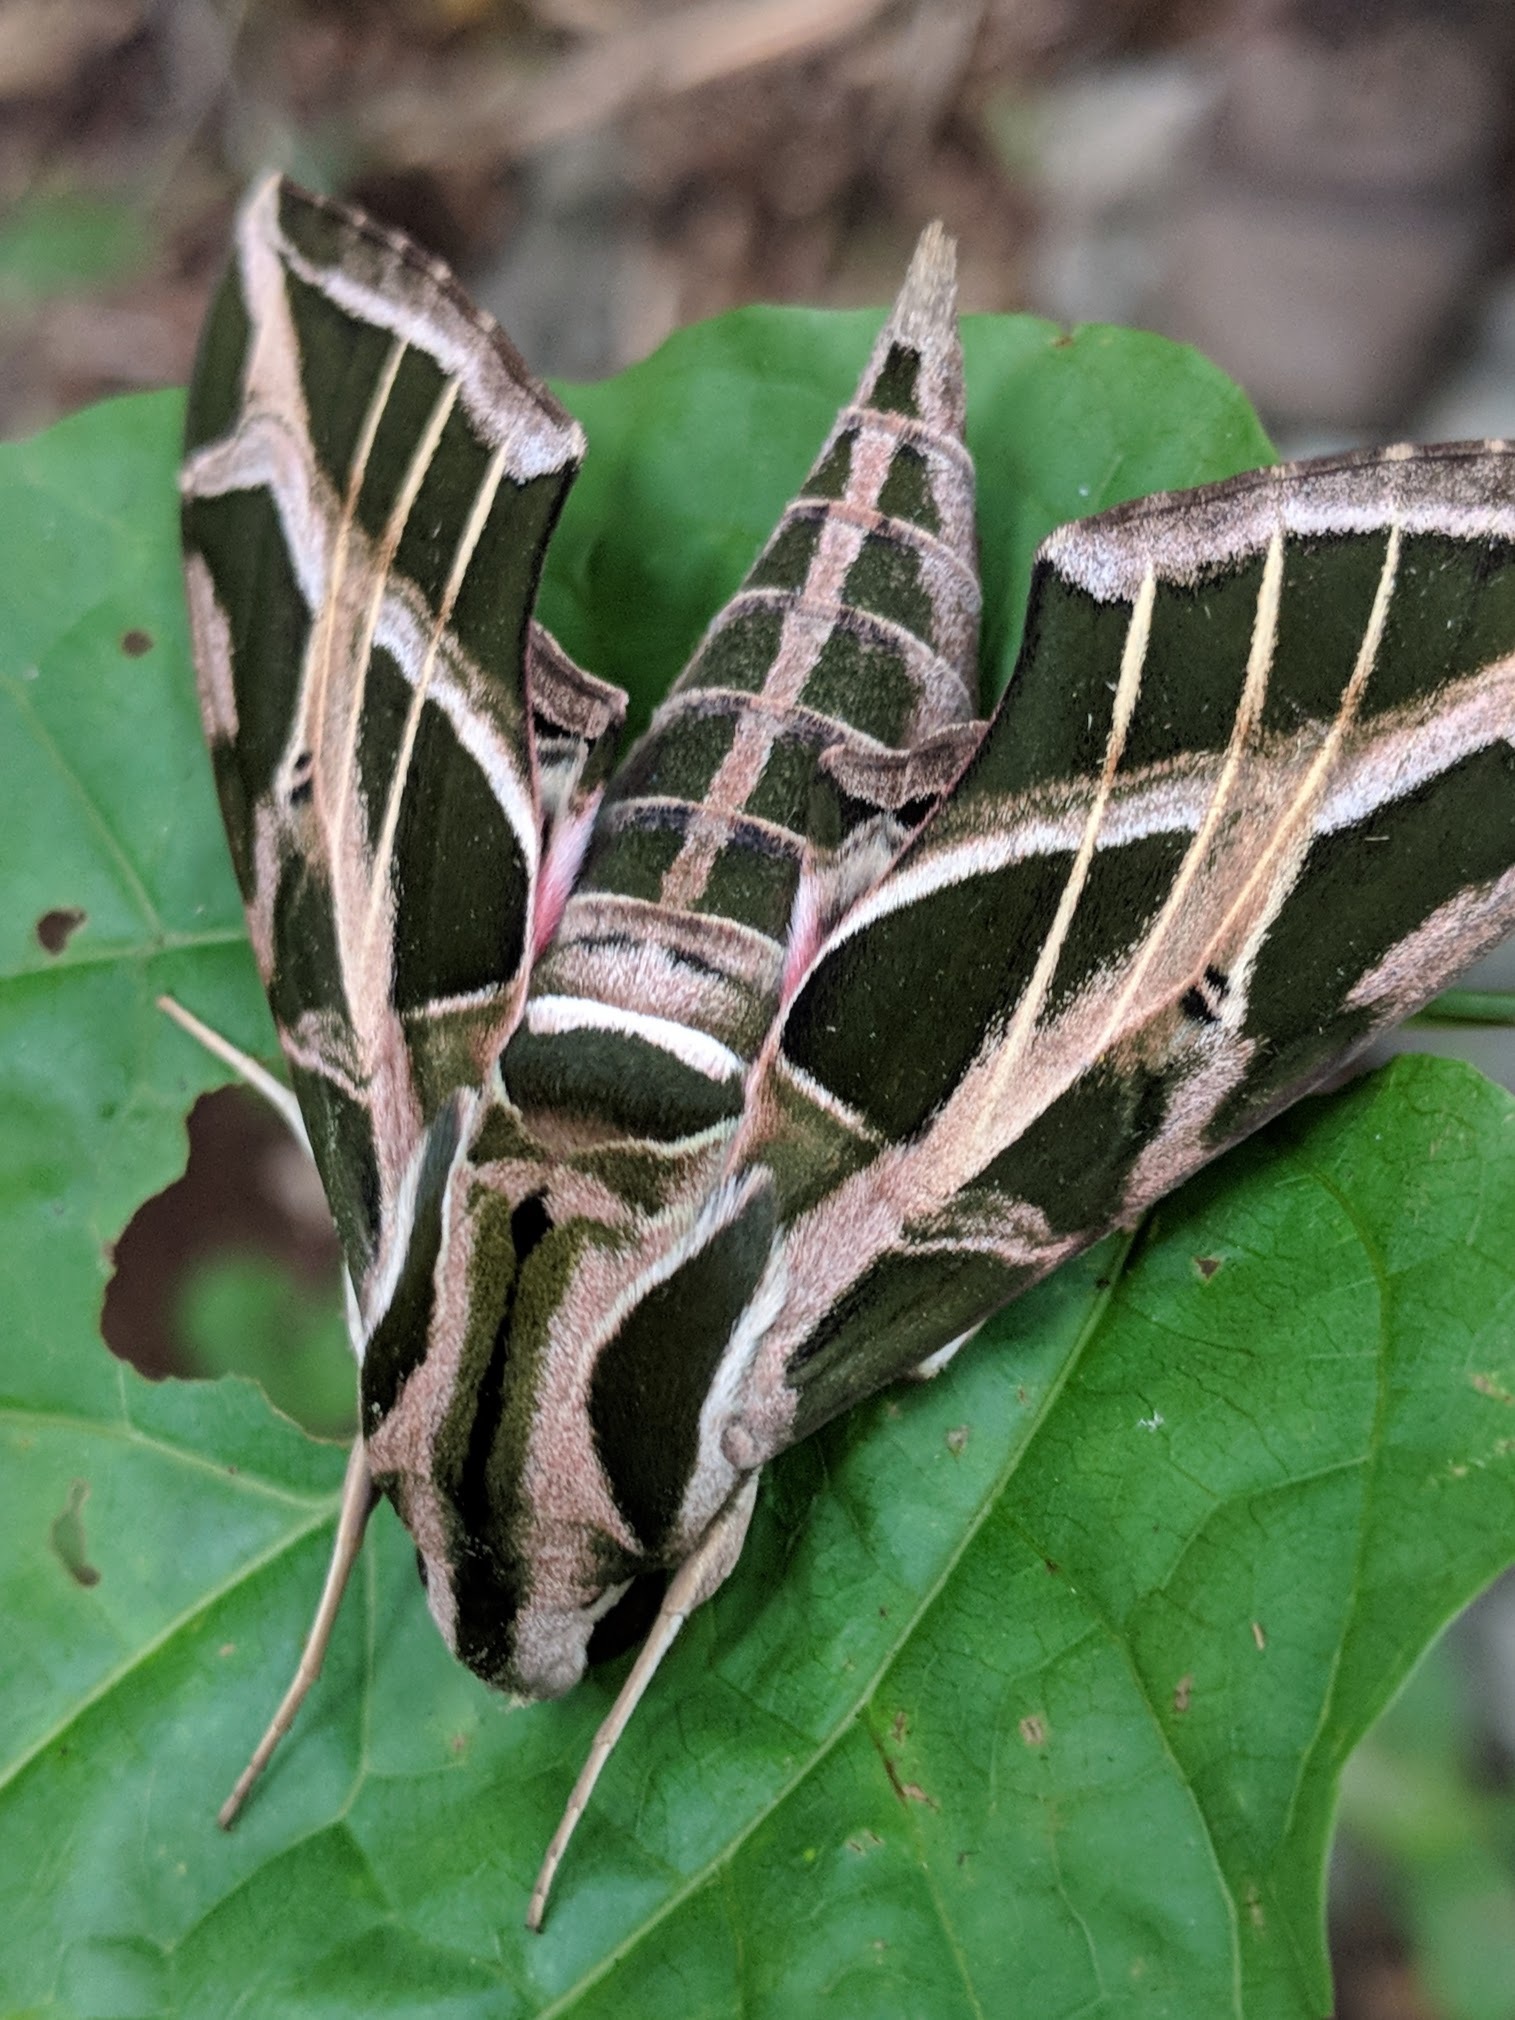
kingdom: Animalia
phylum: Arthropoda
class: Insecta
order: Lepidoptera
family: Sphingidae
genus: Eumorpha
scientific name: Eumorpha vitis
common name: Vine sphinx
